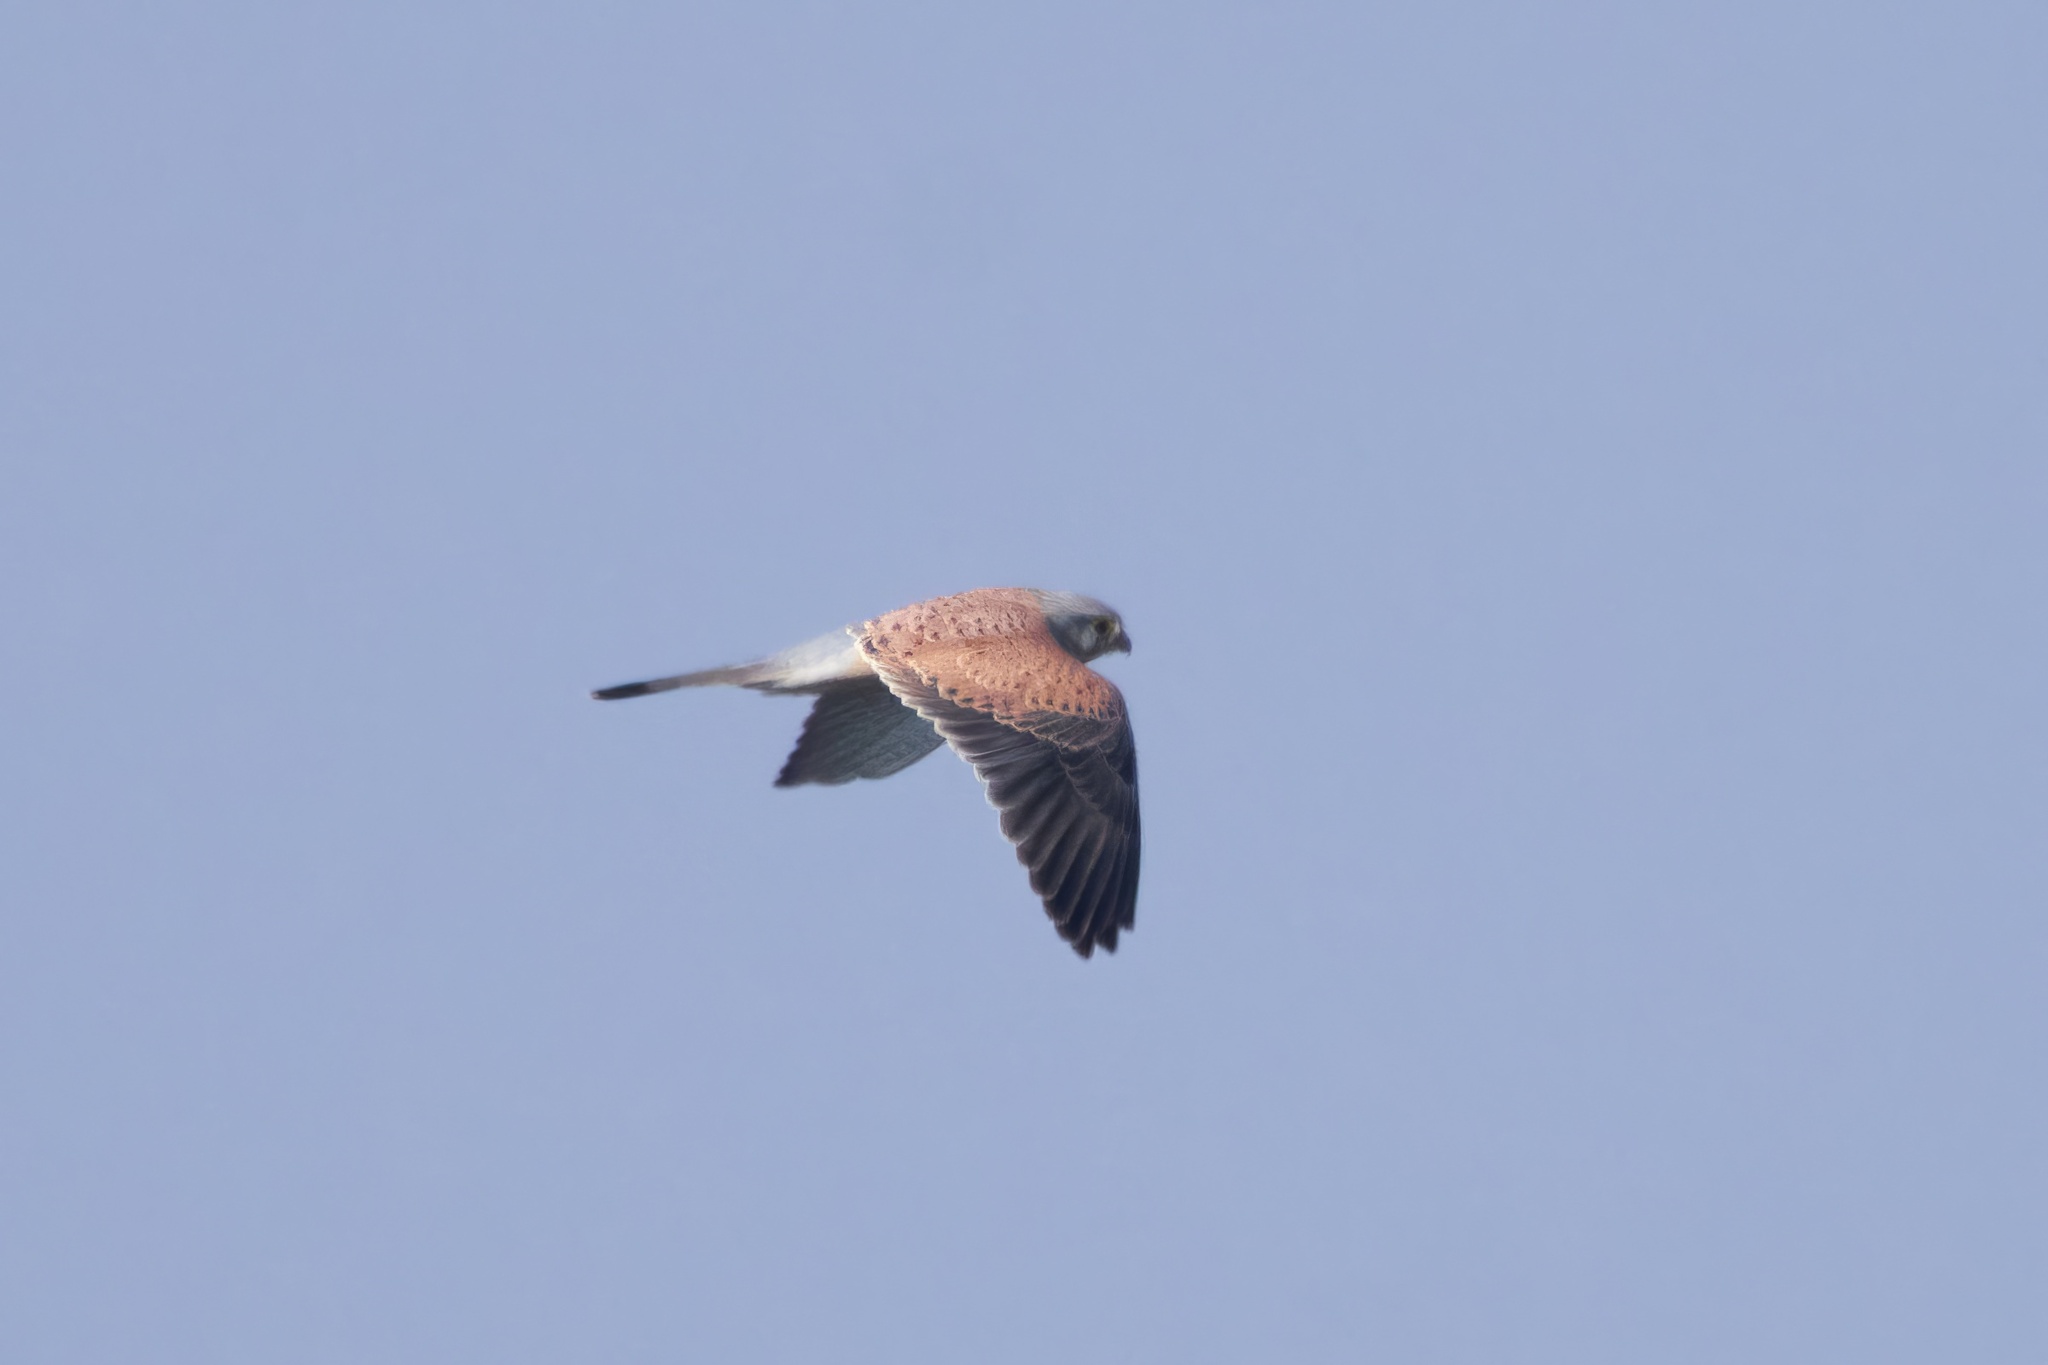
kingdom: Animalia
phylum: Chordata
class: Aves
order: Falconiformes
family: Falconidae
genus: Falco
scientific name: Falco tinnunculus
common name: Common kestrel
